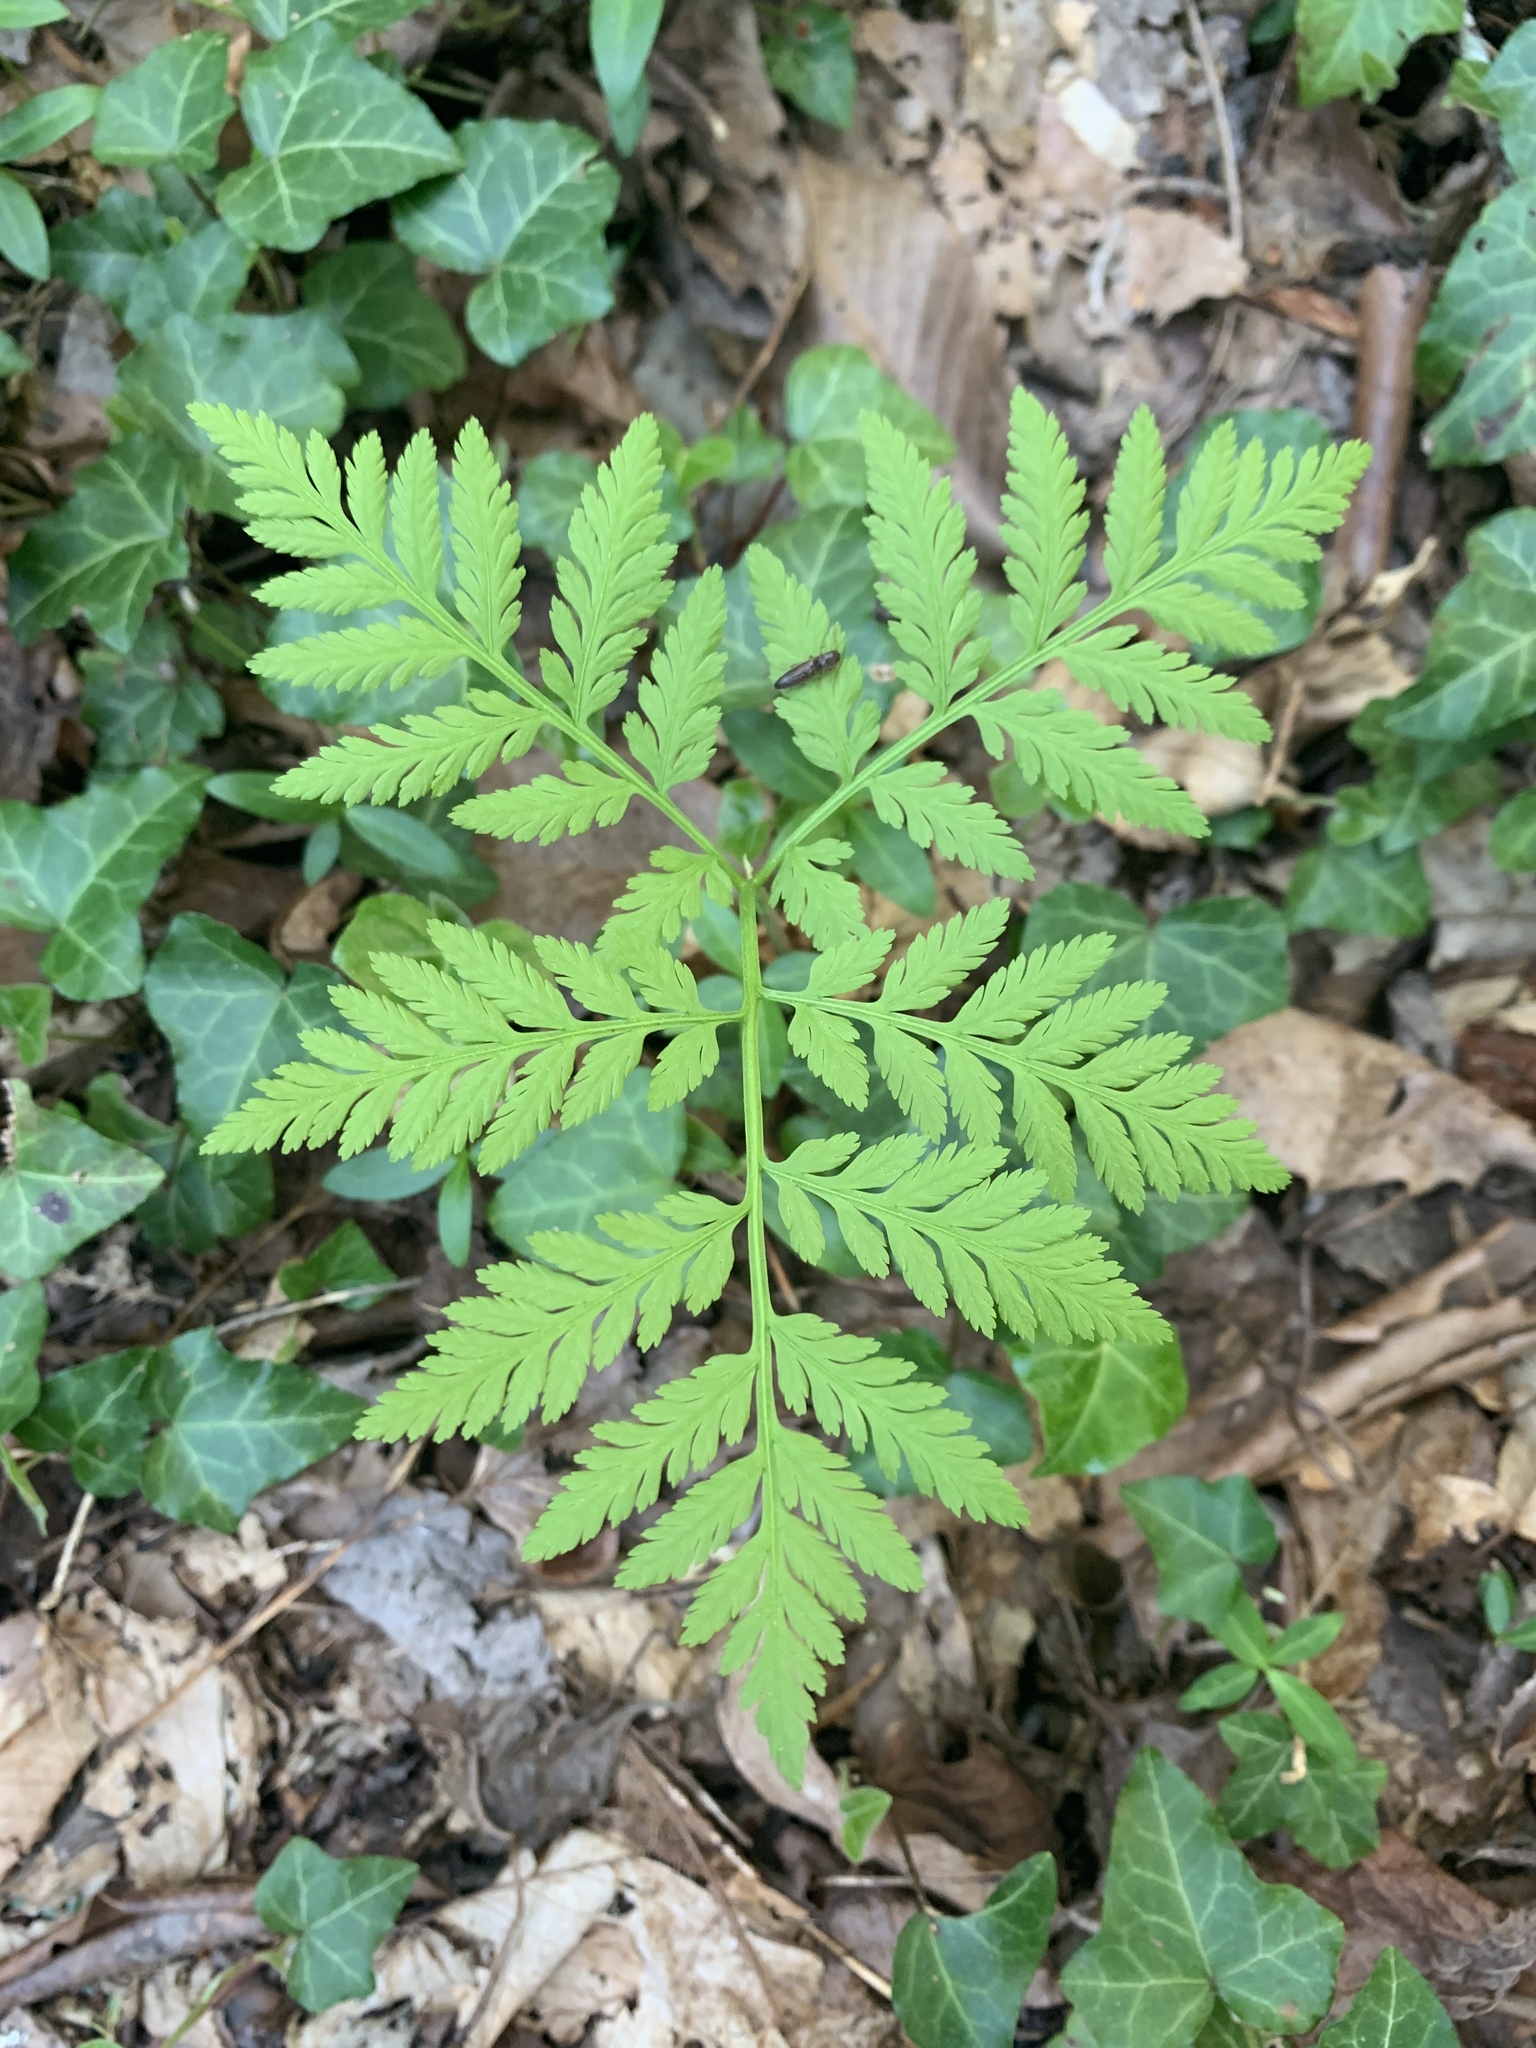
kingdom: Plantae
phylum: Tracheophyta
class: Polypodiopsida
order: Ophioglossales
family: Ophioglossaceae
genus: Botrypus
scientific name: Botrypus virginianus
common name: Common grapefern
